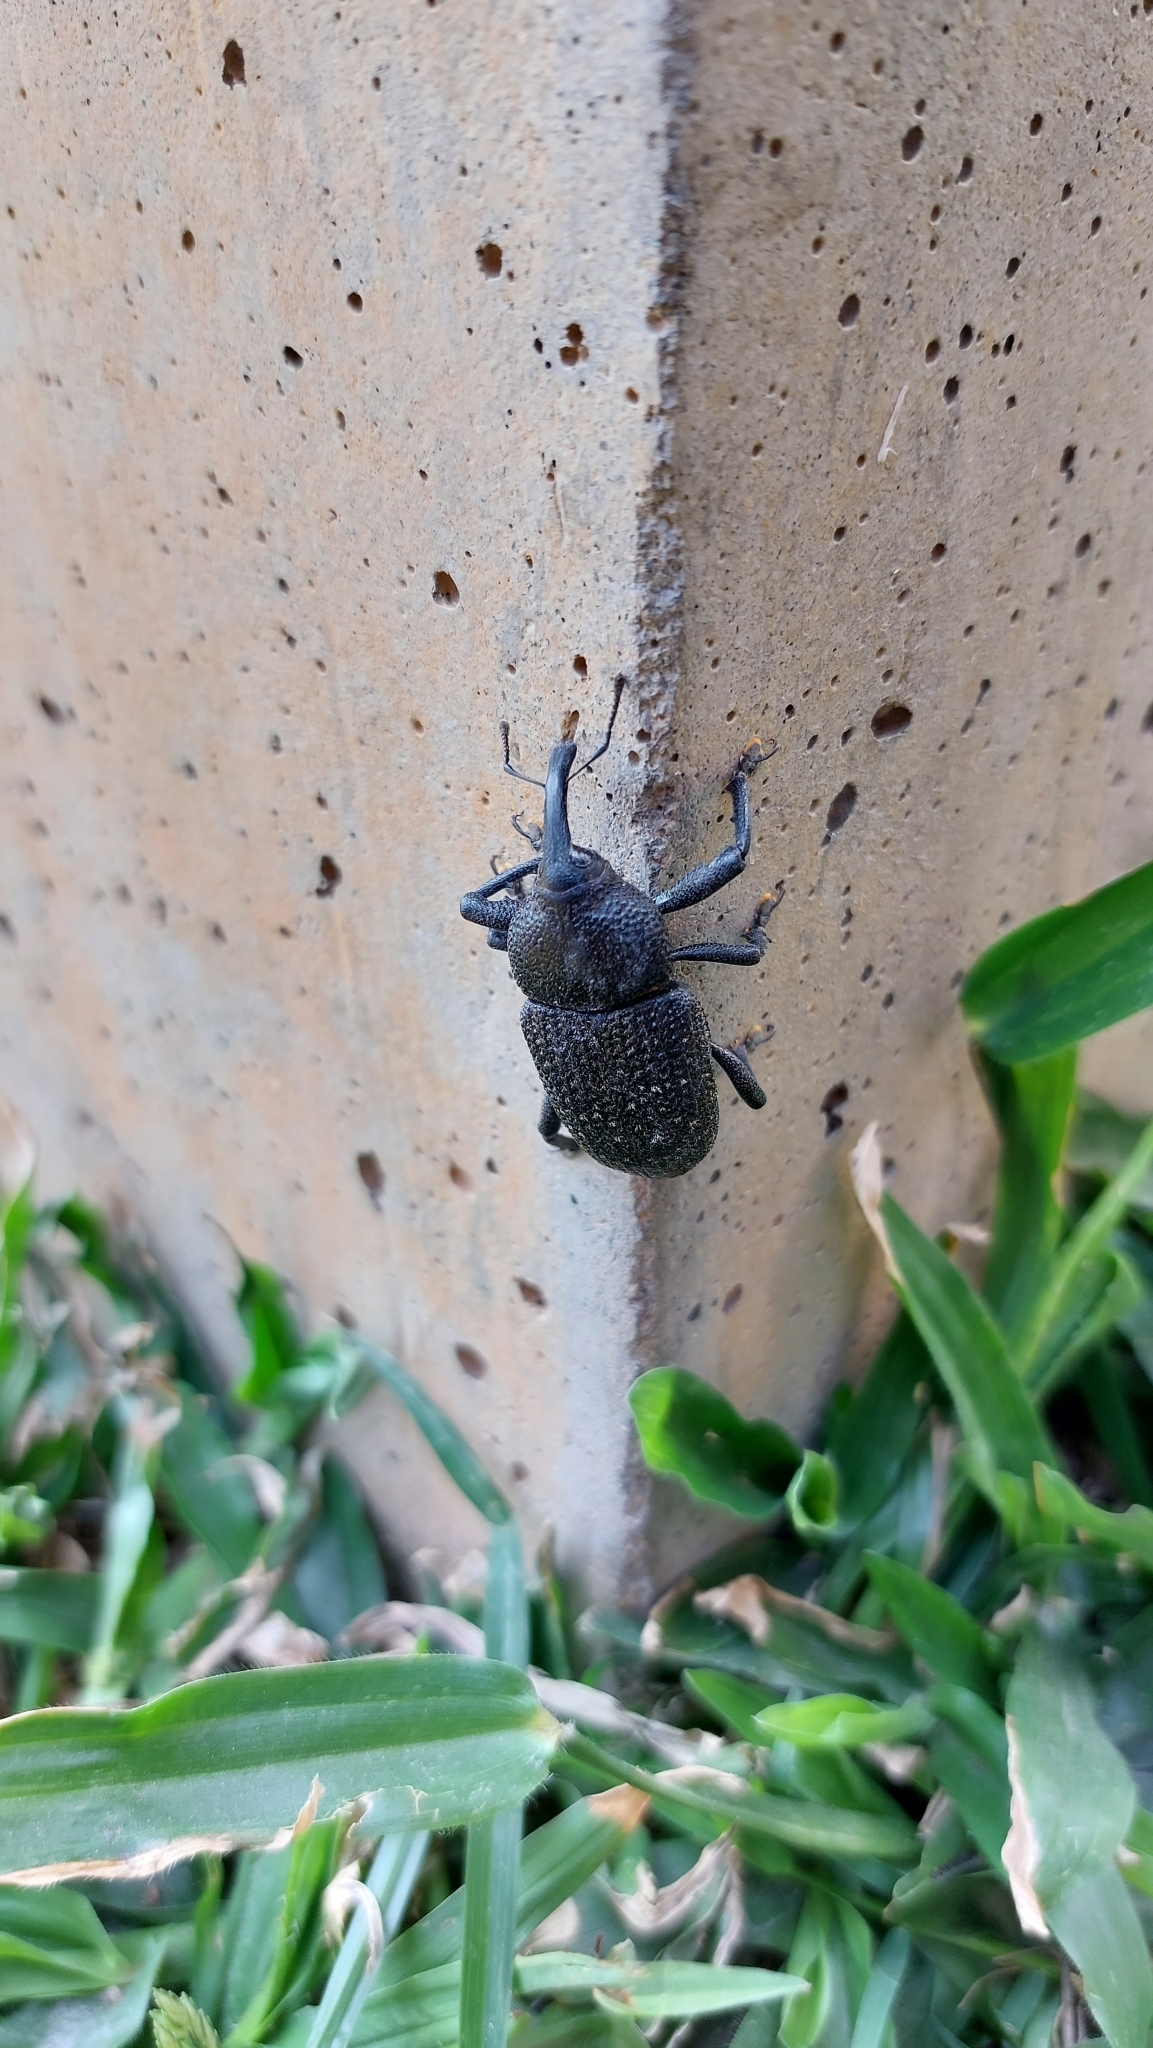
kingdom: Animalia
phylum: Arthropoda
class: Insecta
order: Coleoptera
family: Curculionidae
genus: Homalinotus
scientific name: Homalinotus coriaceus
